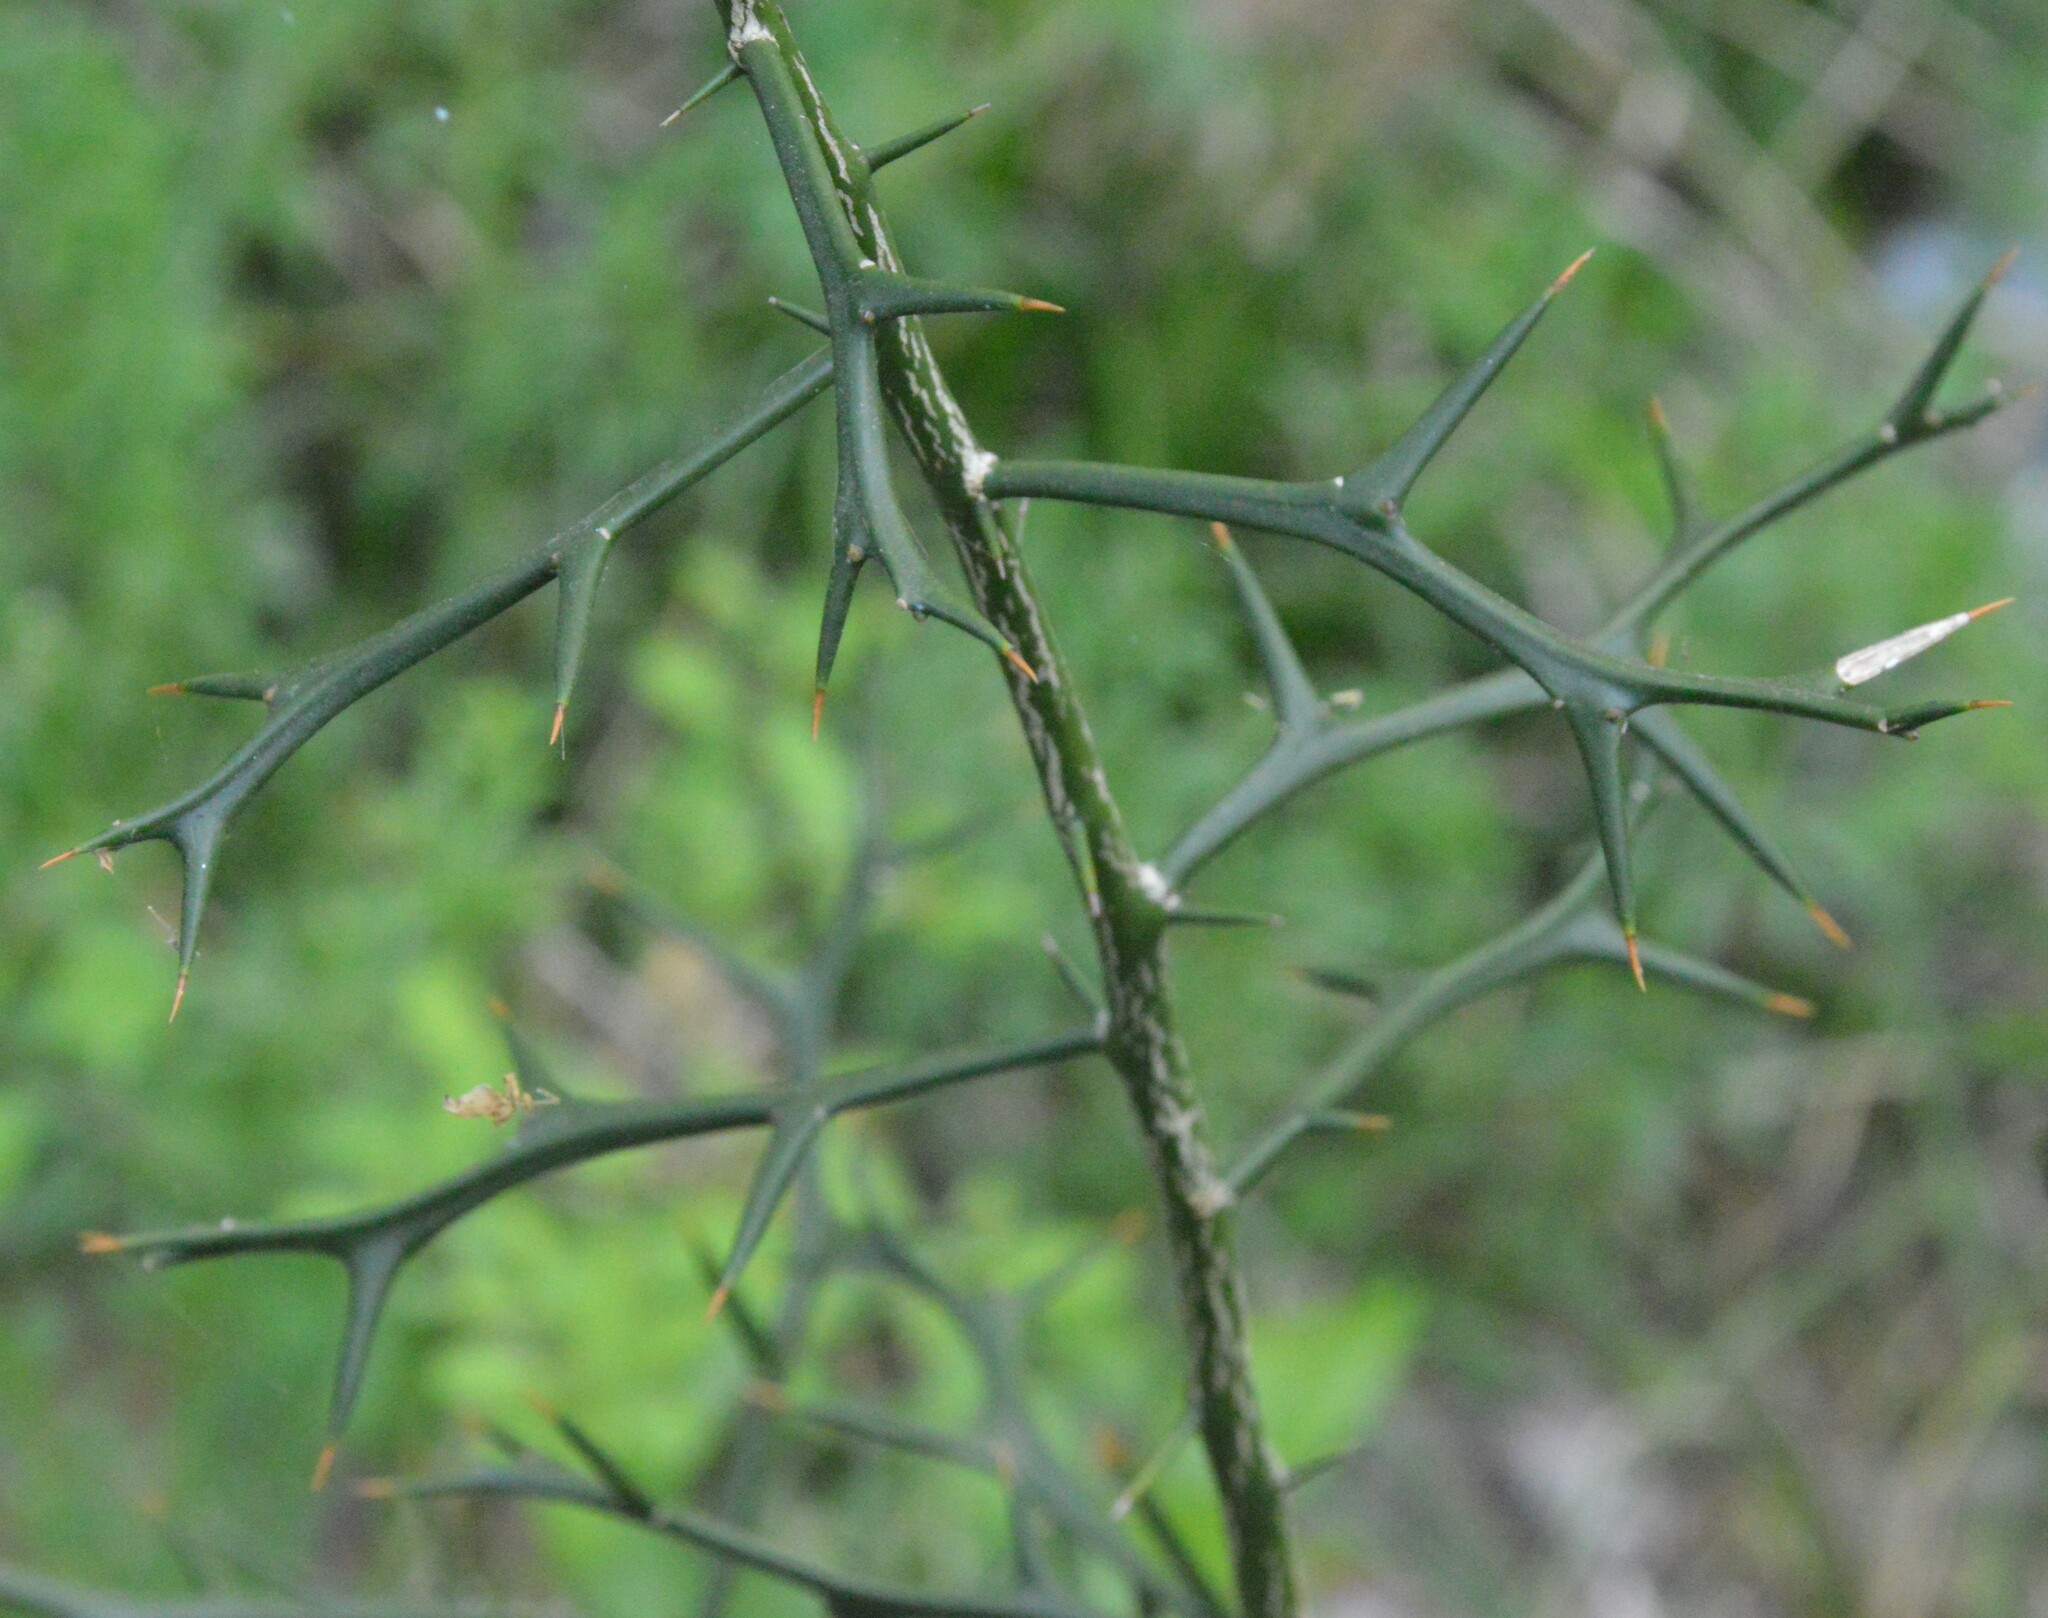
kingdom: Plantae
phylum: Tracheophyta
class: Magnoliopsida
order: Sapindales
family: Rutaceae
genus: Citrus
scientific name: Citrus trifoliata
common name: Japanese bitter-orange
